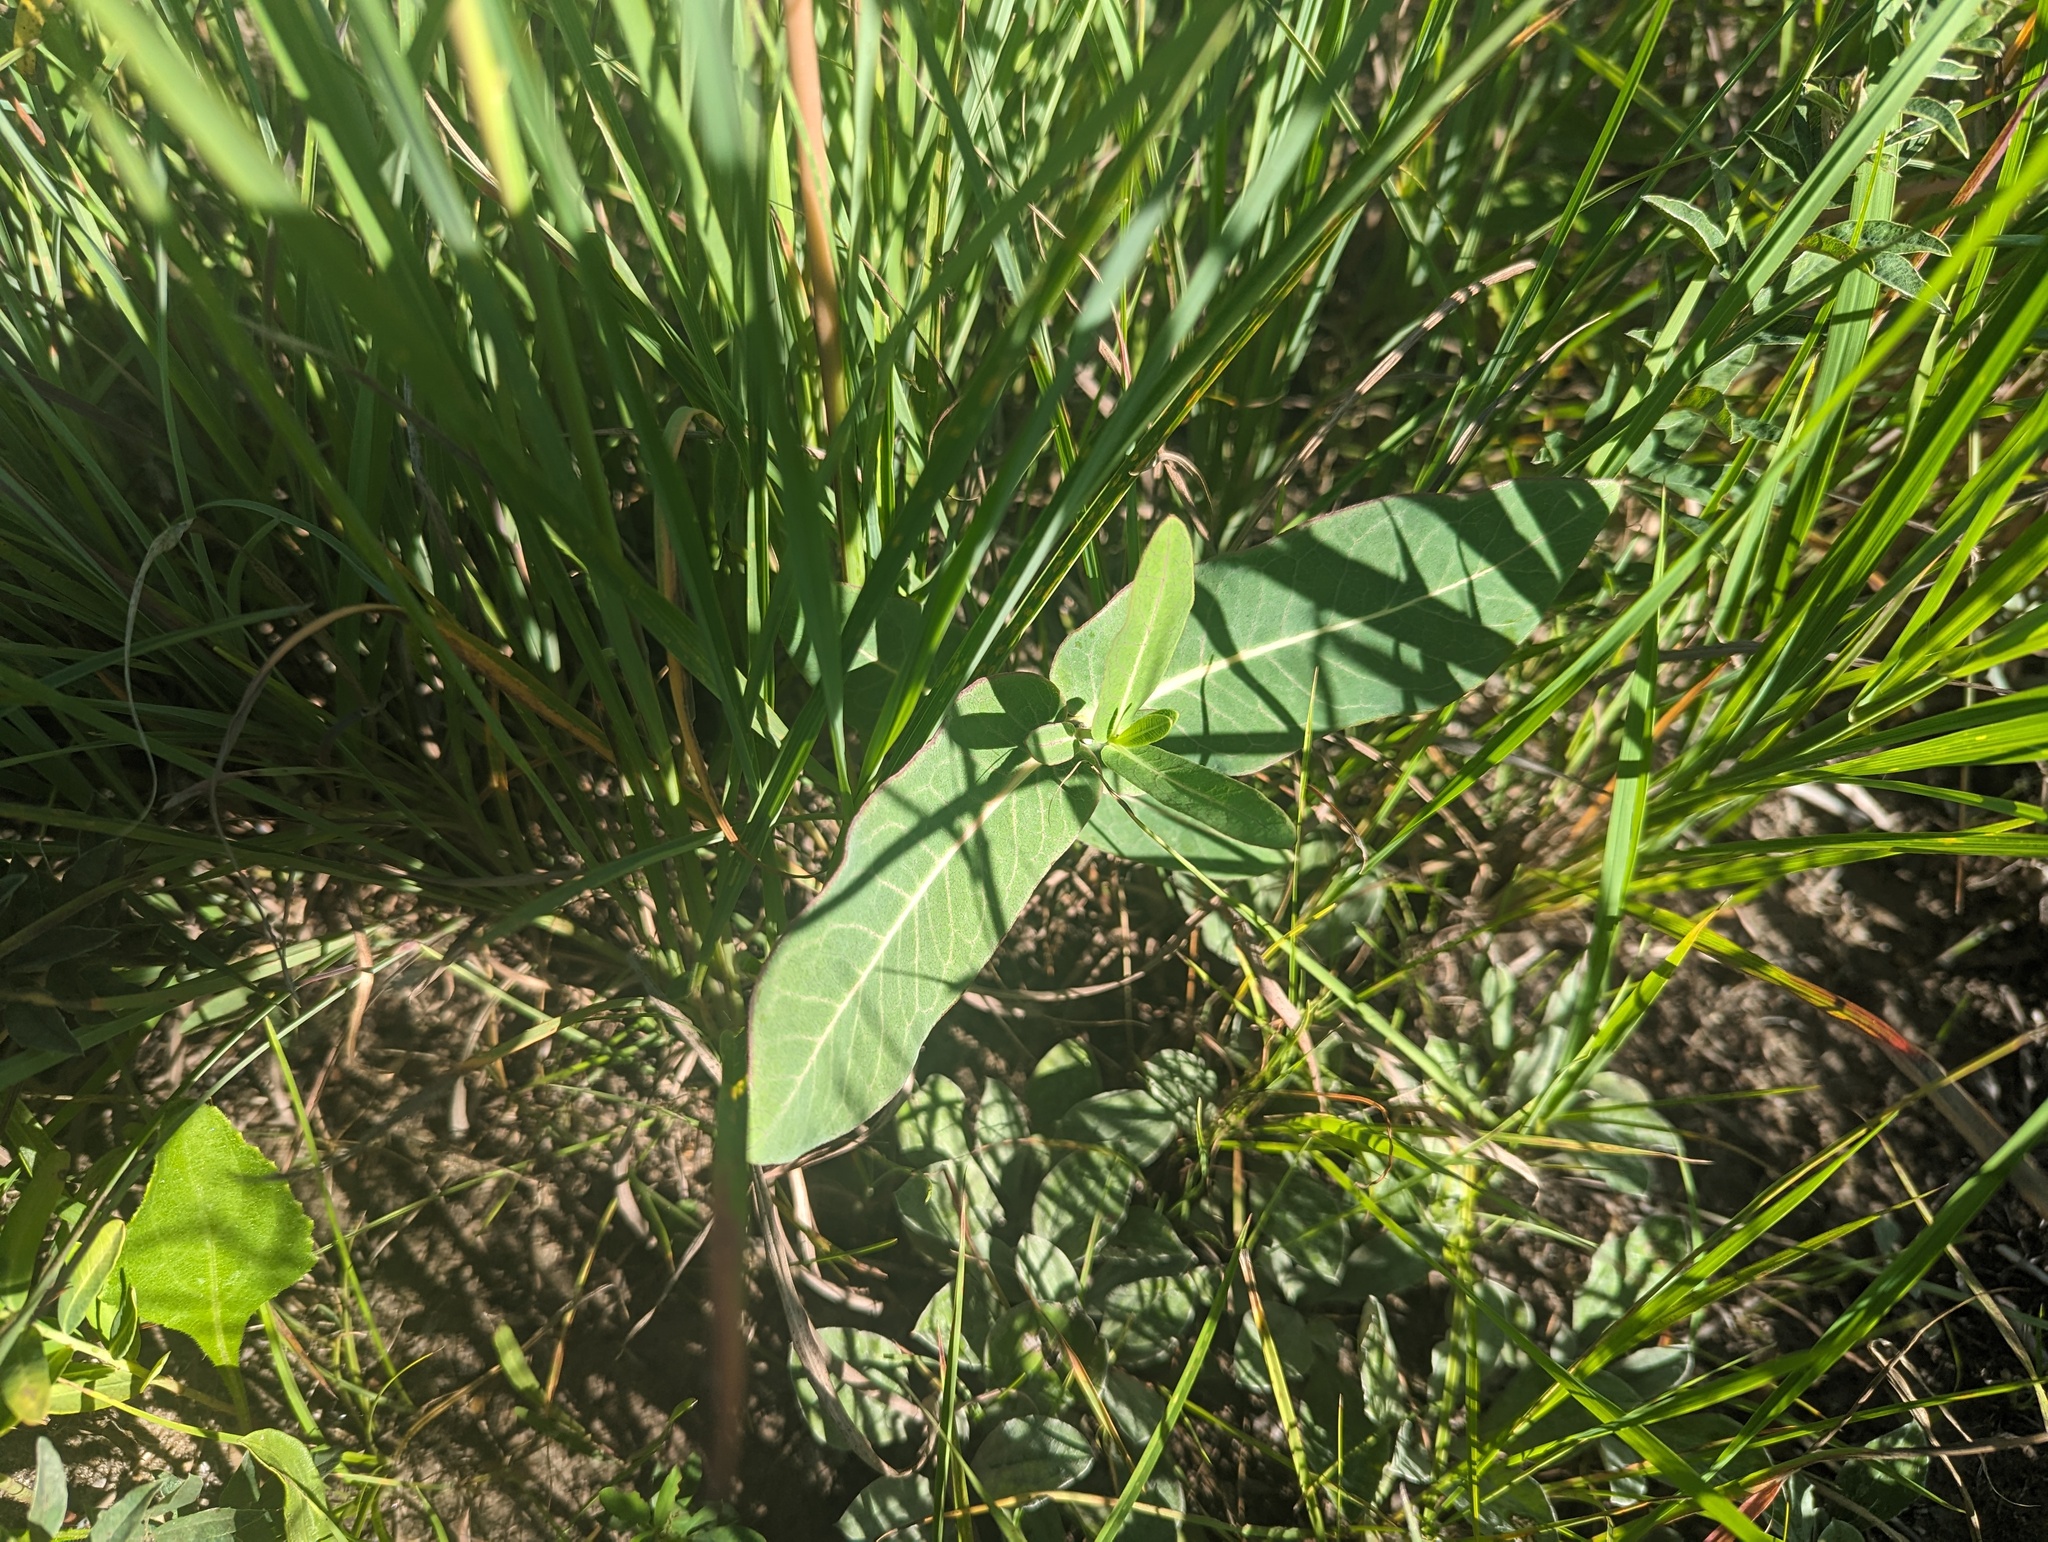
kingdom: Plantae
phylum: Tracheophyta
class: Magnoliopsida
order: Gentianales
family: Apocynaceae
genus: Asclepias
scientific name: Asclepias amplexicaulis
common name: Blunt-leaf milkweed
